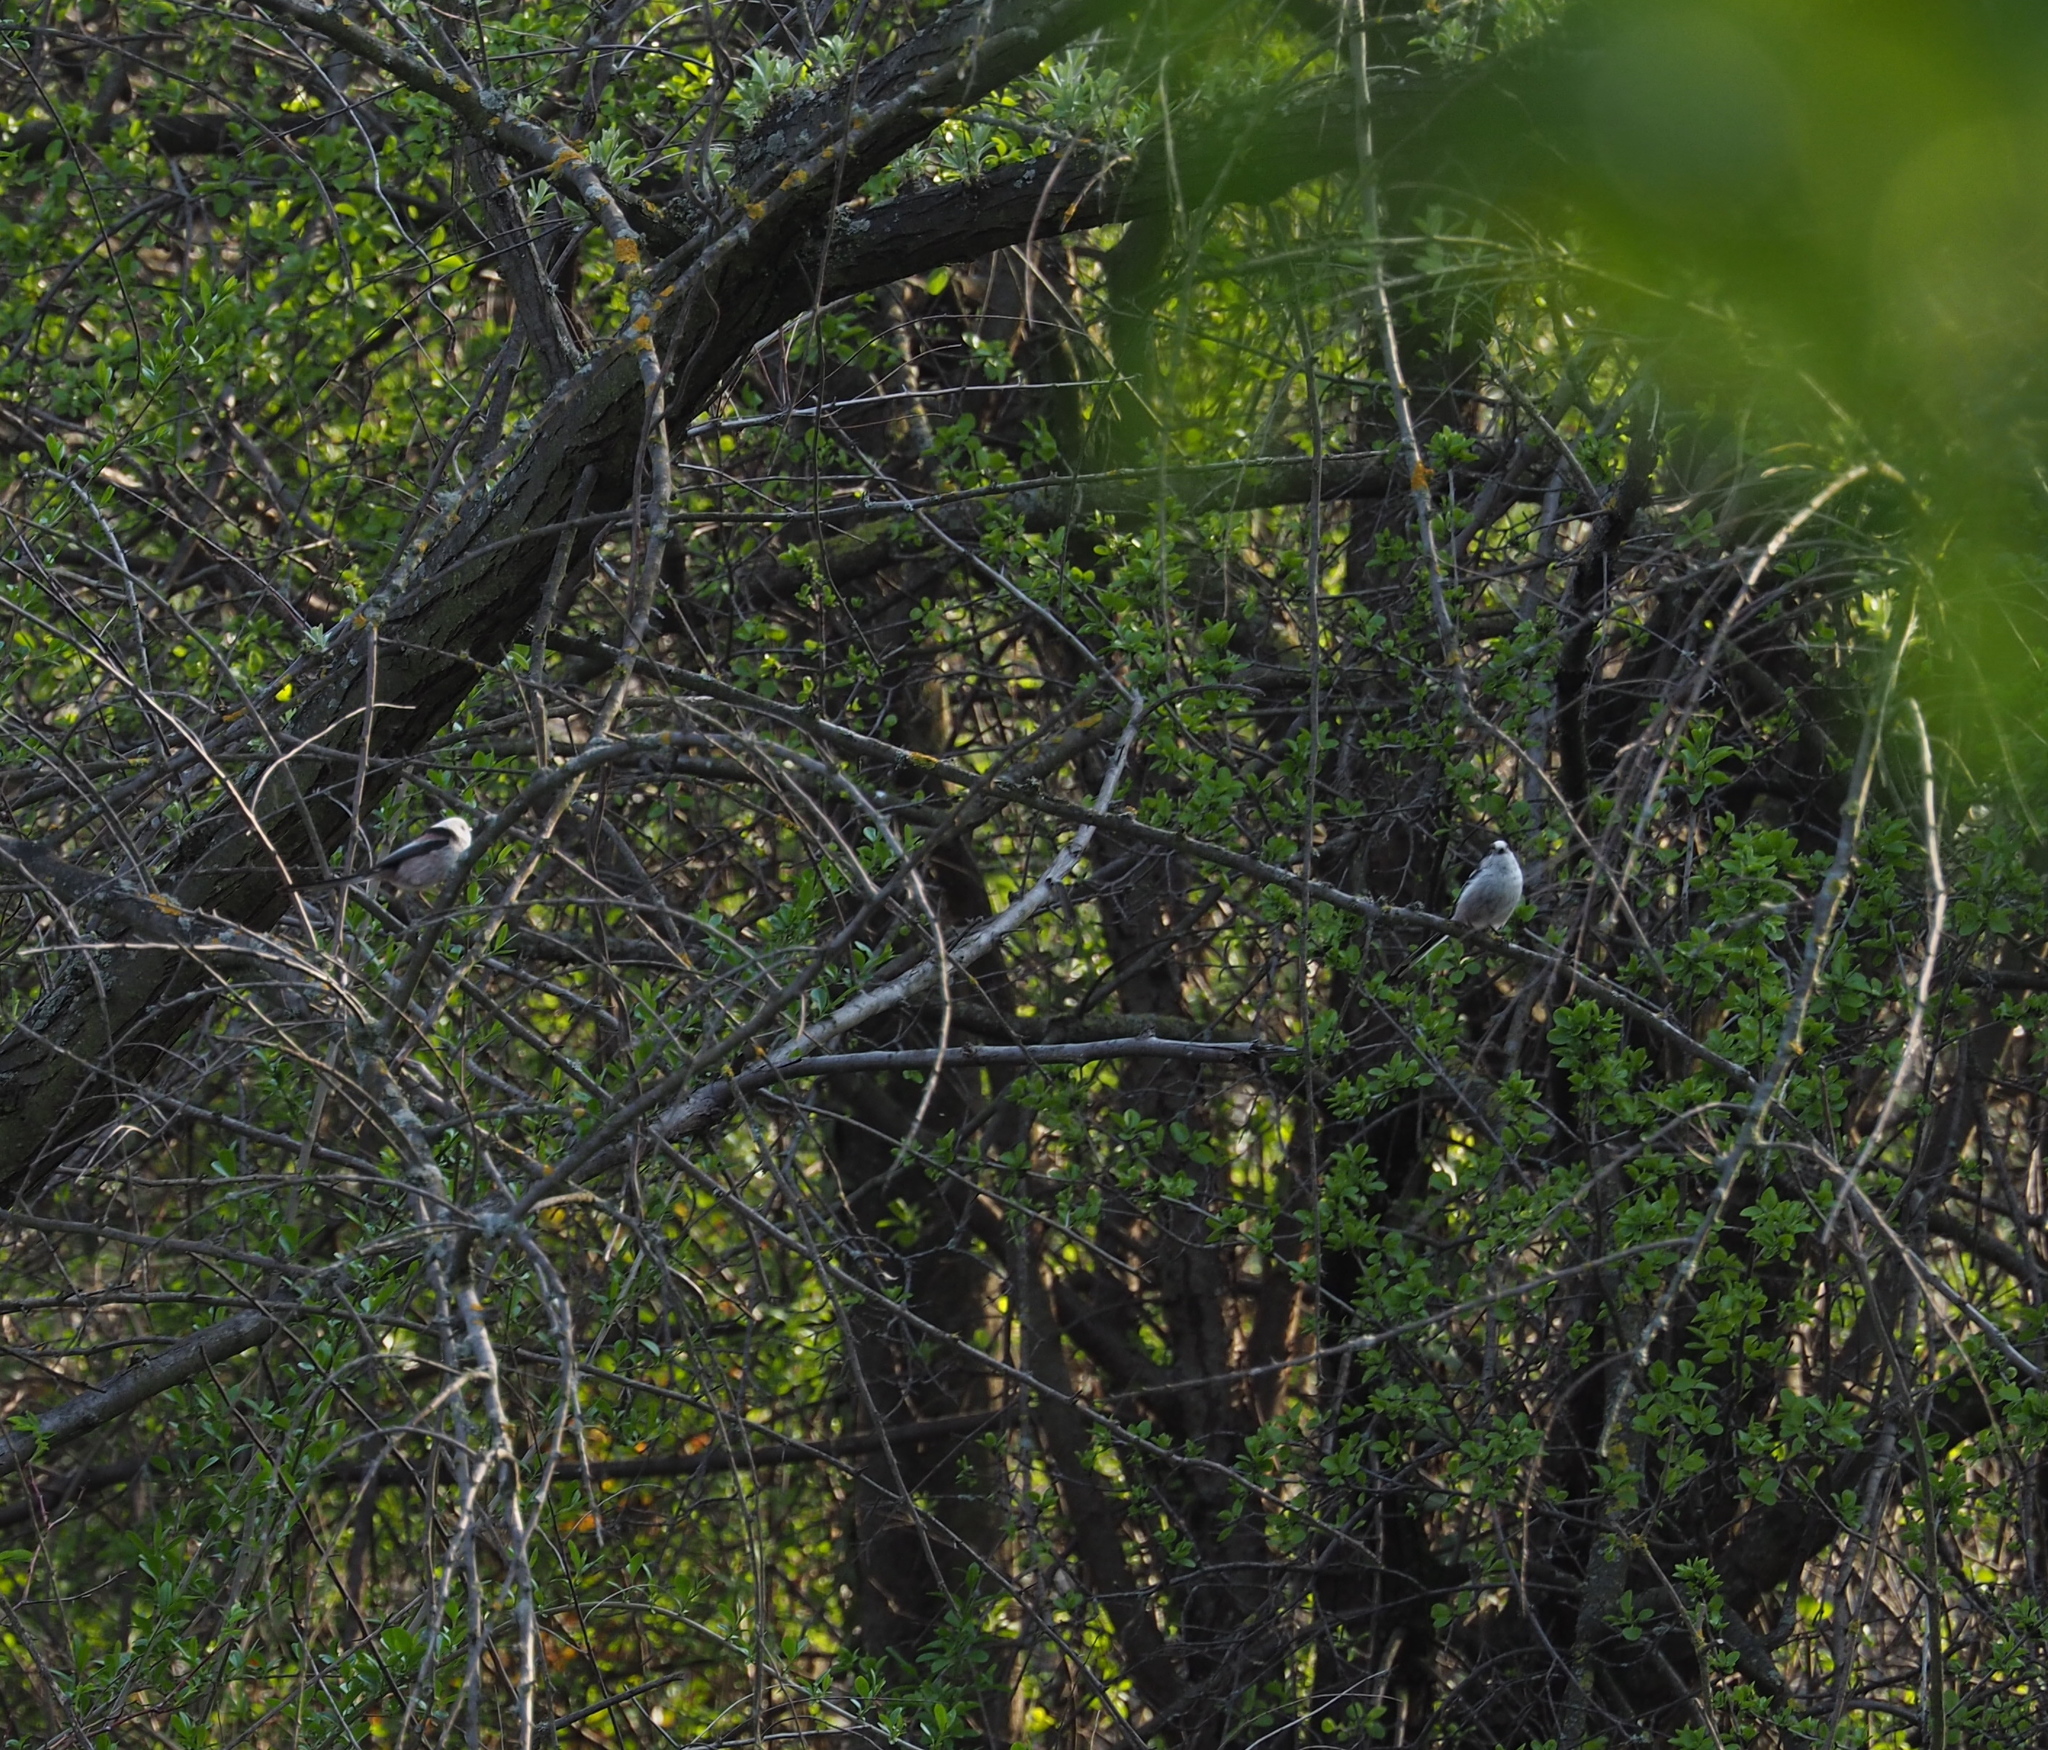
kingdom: Animalia
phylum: Chordata
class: Aves
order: Passeriformes
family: Aegithalidae
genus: Aegithalos
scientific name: Aegithalos caudatus
